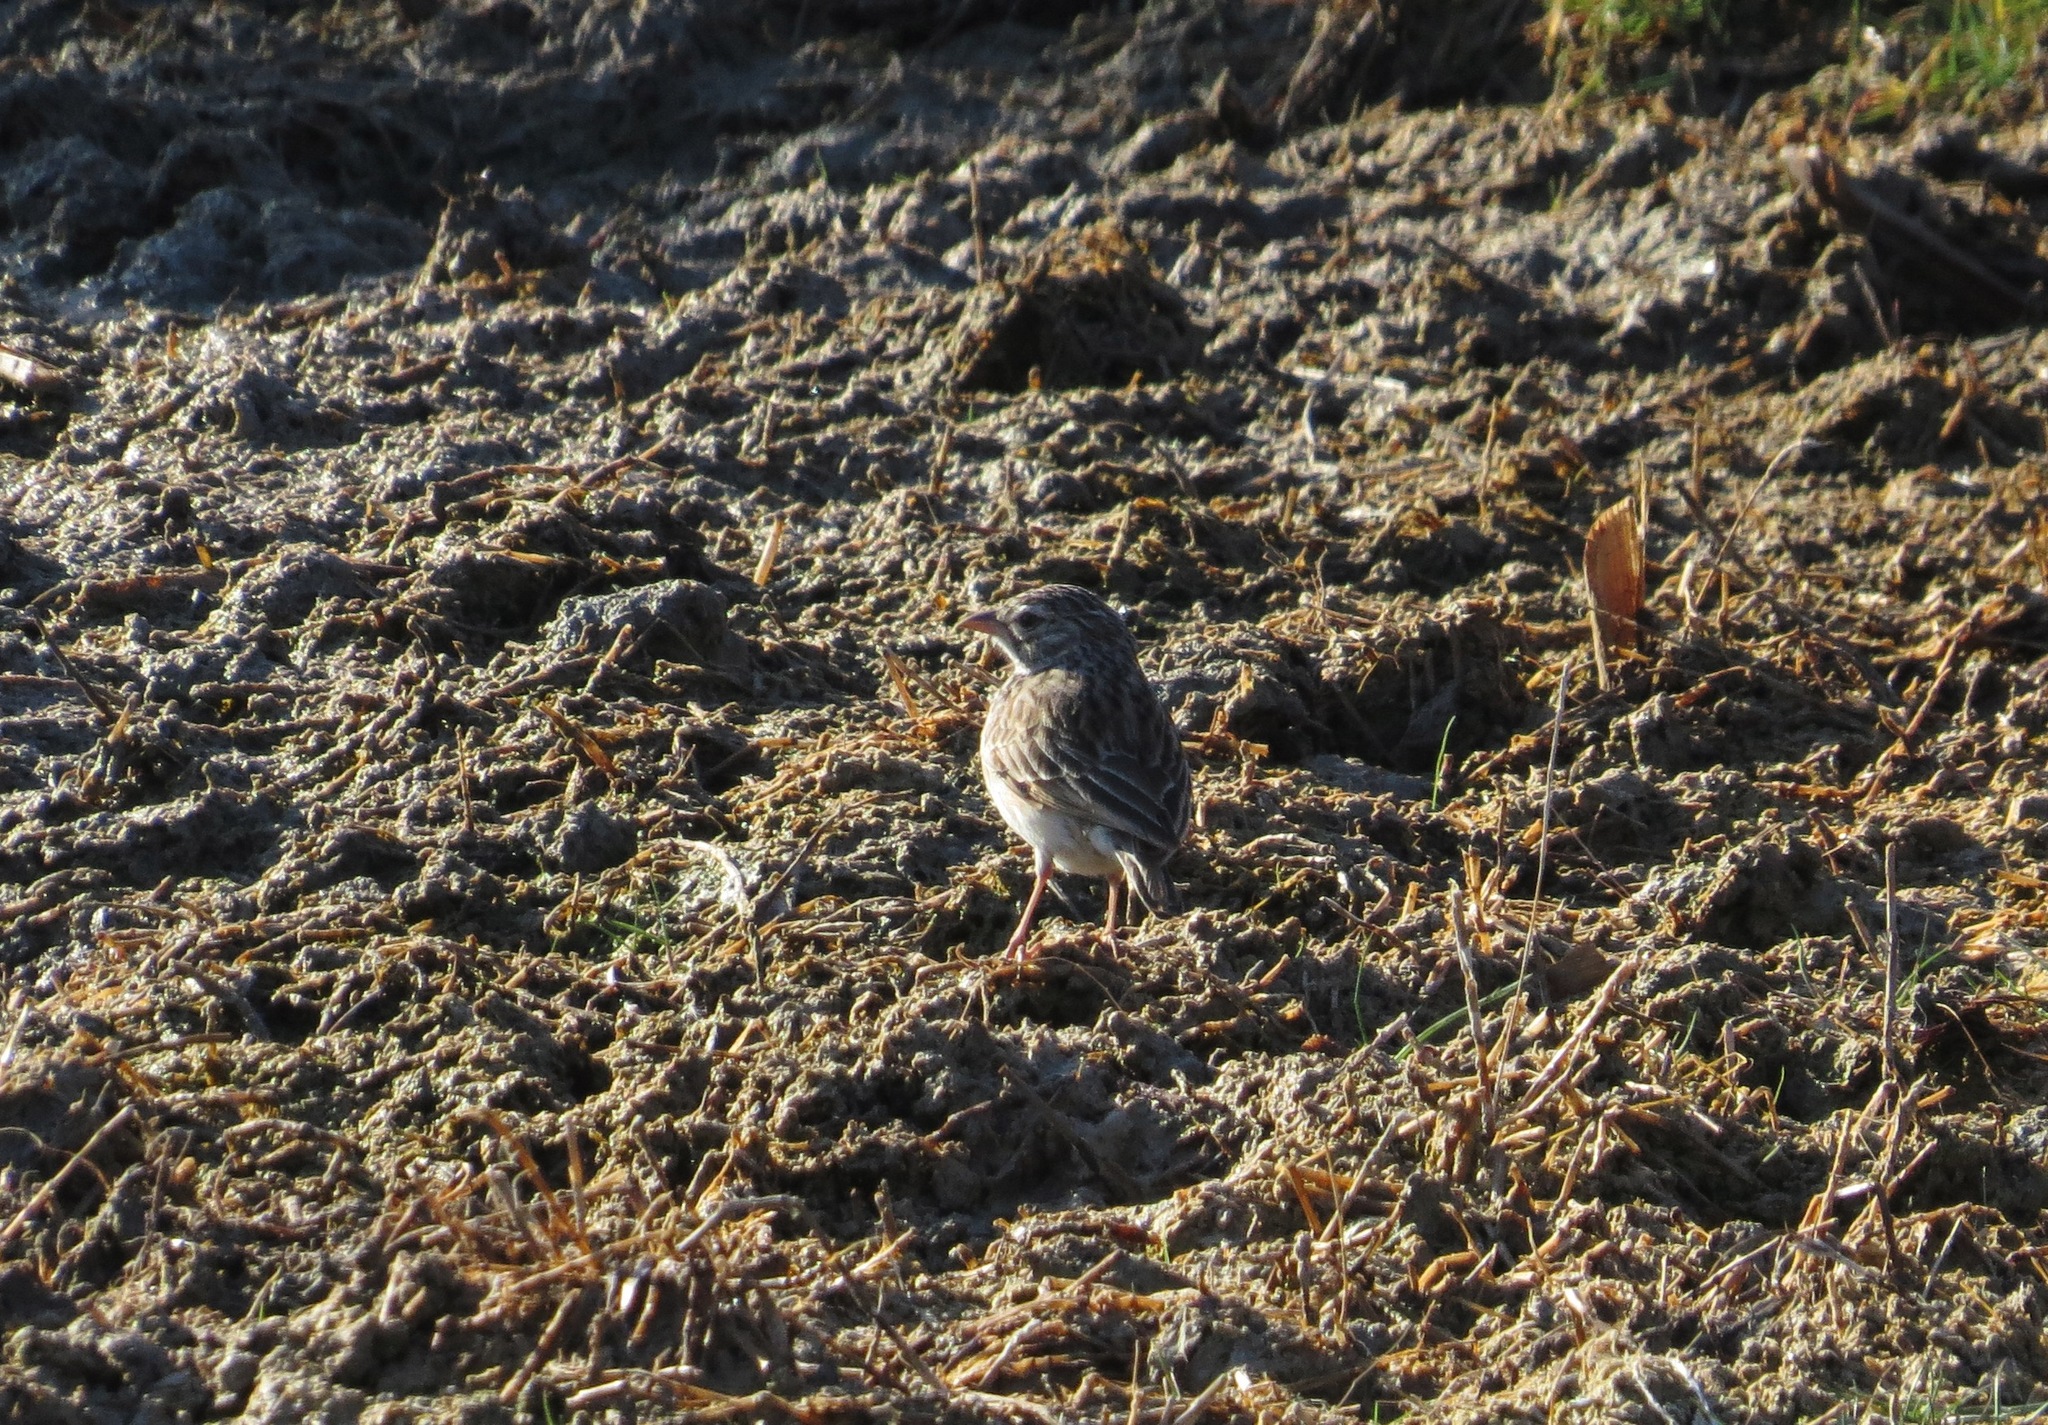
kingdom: Animalia
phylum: Chordata
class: Aves
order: Passeriformes
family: Alaudidae
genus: Mirafra
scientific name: Mirafra hova
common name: Madagascar lark
